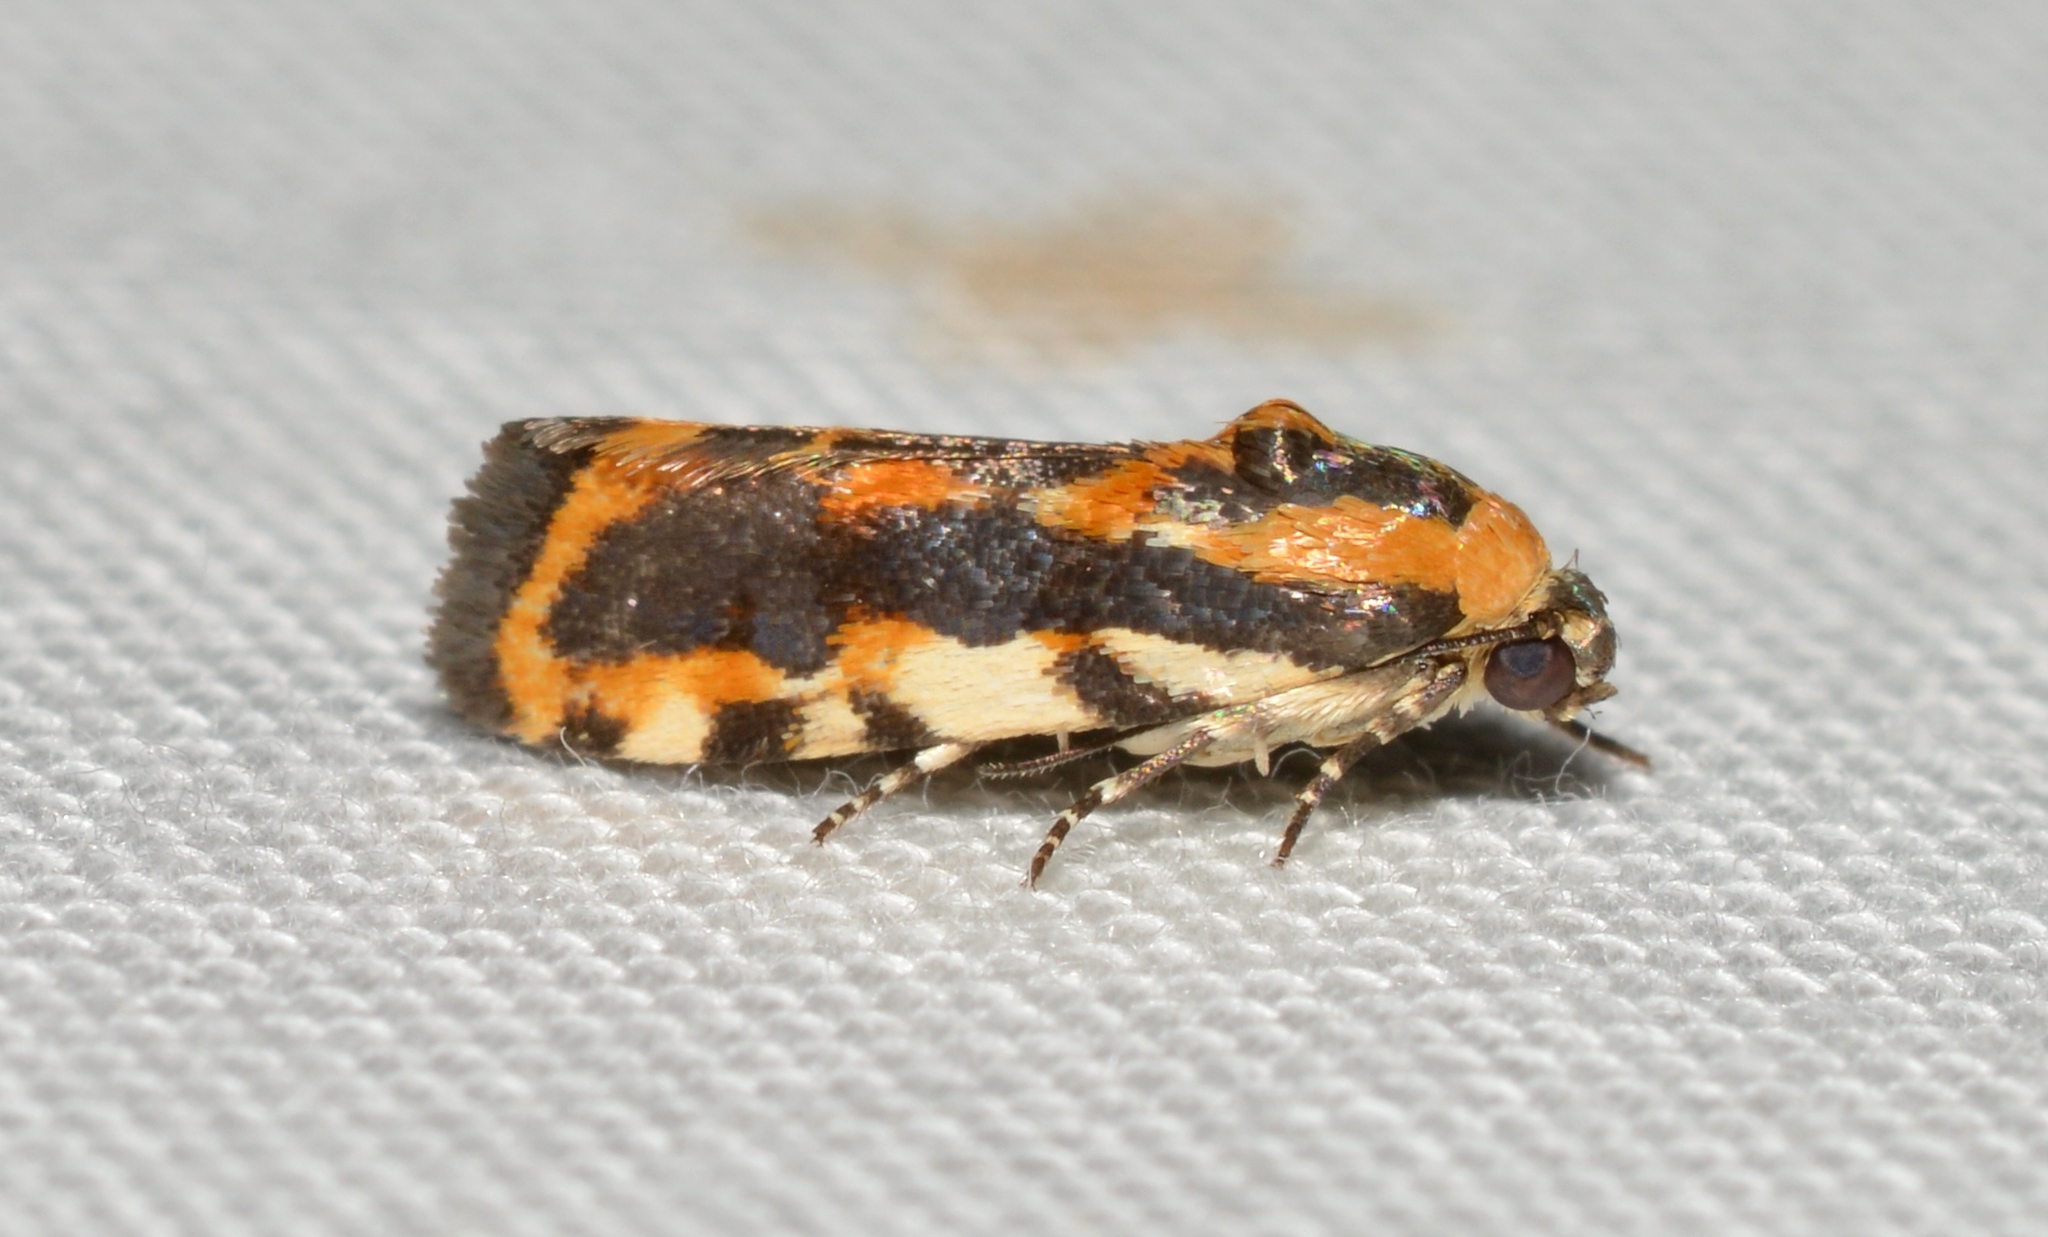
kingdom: Animalia
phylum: Arthropoda
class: Insecta
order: Lepidoptera
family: Noctuidae
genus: Acontia
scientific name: Acontia leo
